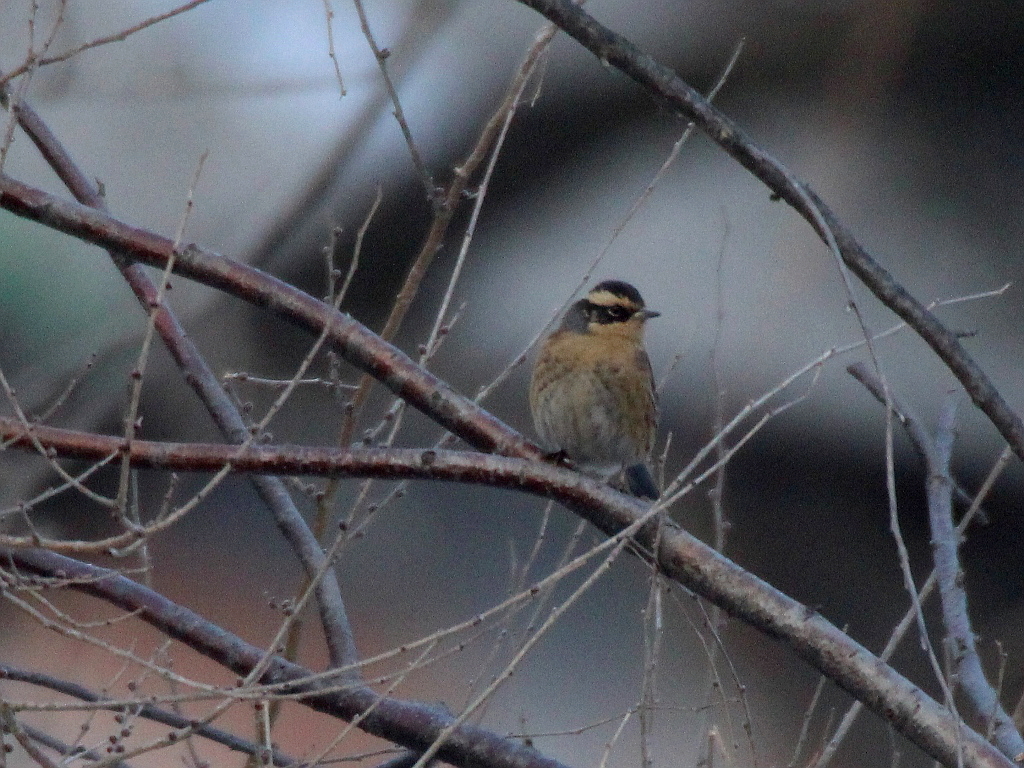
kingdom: Animalia
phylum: Chordata
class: Aves
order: Passeriformes
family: Prunellidae
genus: Prunella
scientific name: Prunella montanella
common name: Siberian accentor
